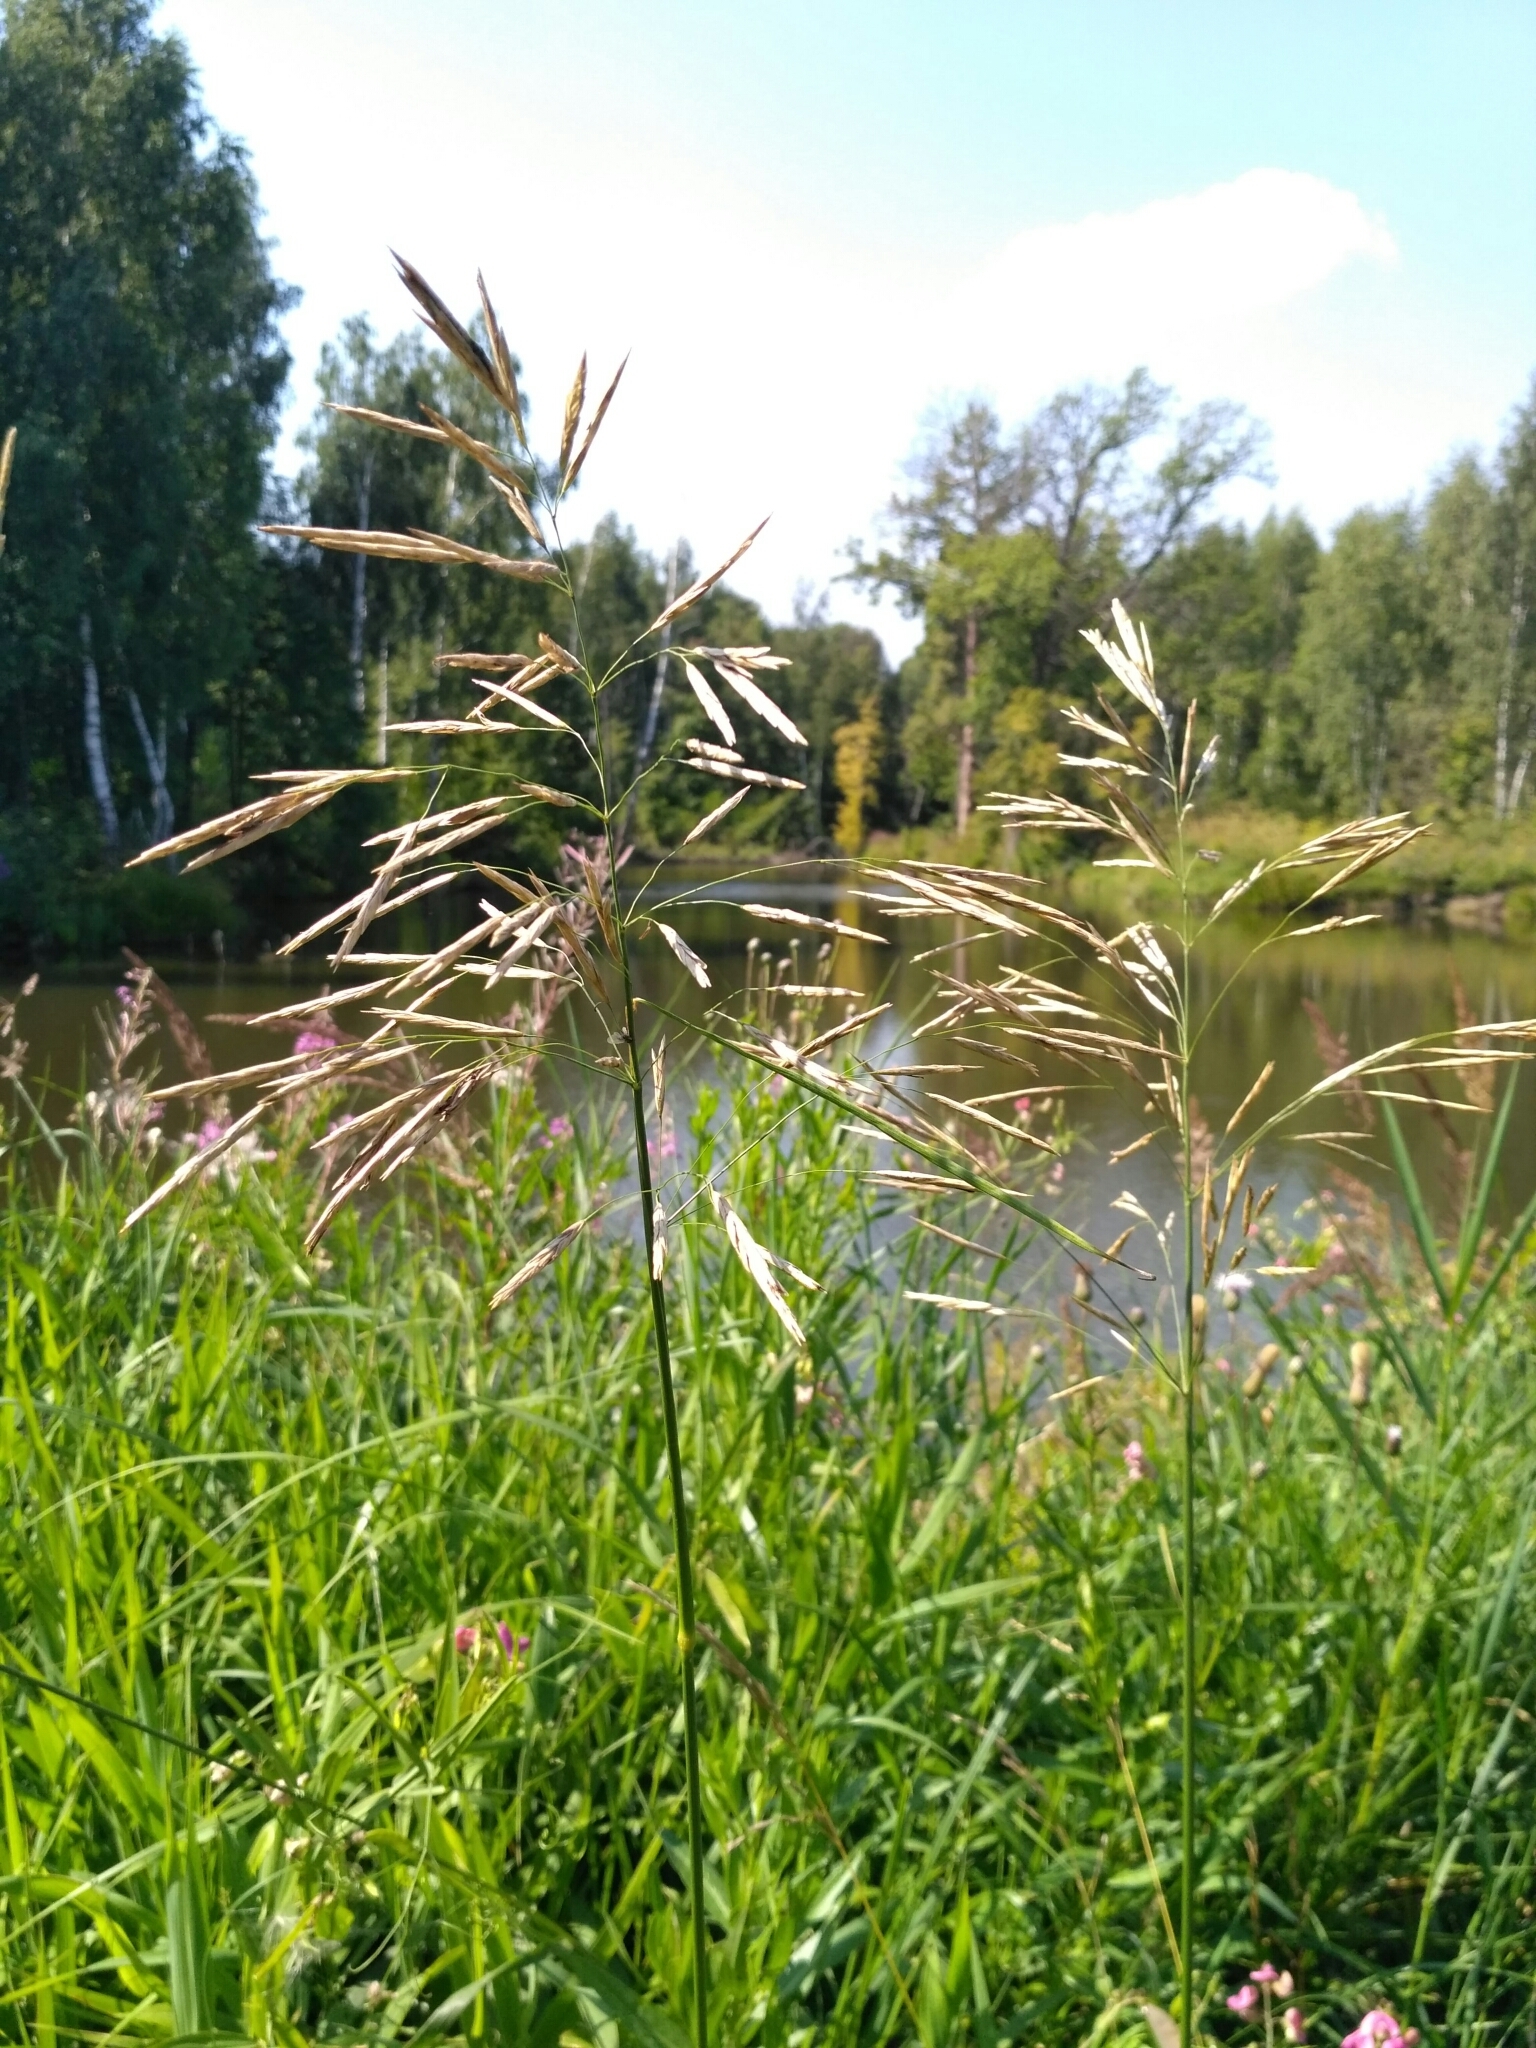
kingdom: Plantae
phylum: Tracheophyta
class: Liliopsida
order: Poales
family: Poaceae
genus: Bromus
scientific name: Bromus inermis
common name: Smooth brome
